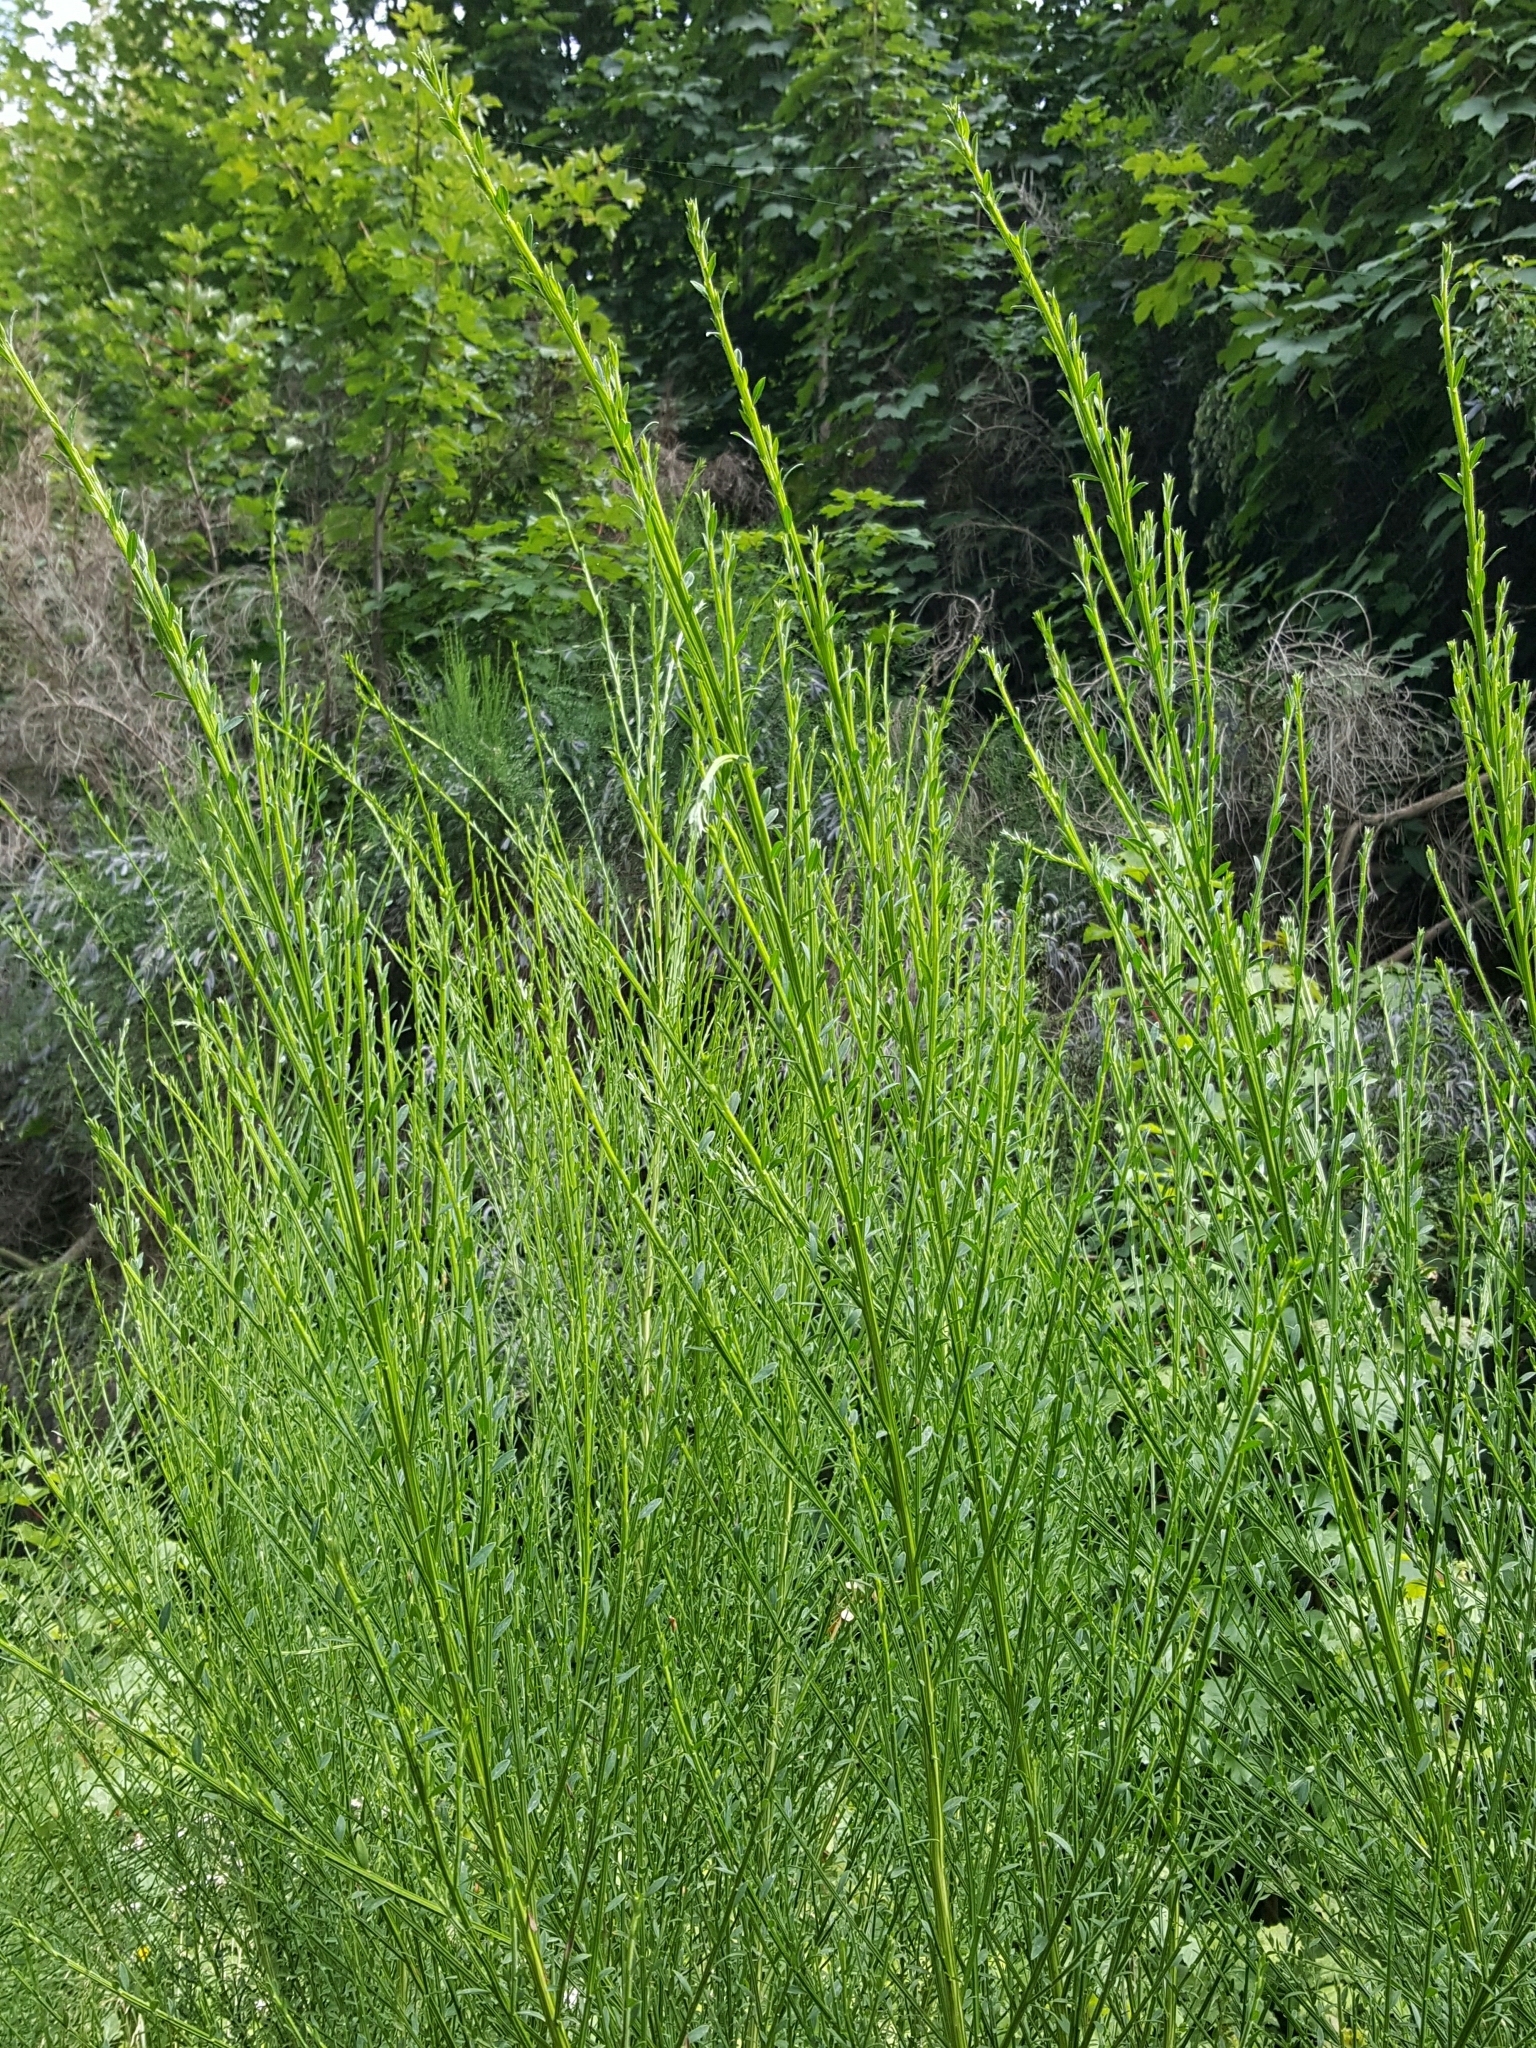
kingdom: Plantae
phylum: Tracheophyta
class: Magnoliopsida
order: Fabales
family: Fabaceae
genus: Cytisus
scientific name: Cytisus scoparius
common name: Scotch broom
